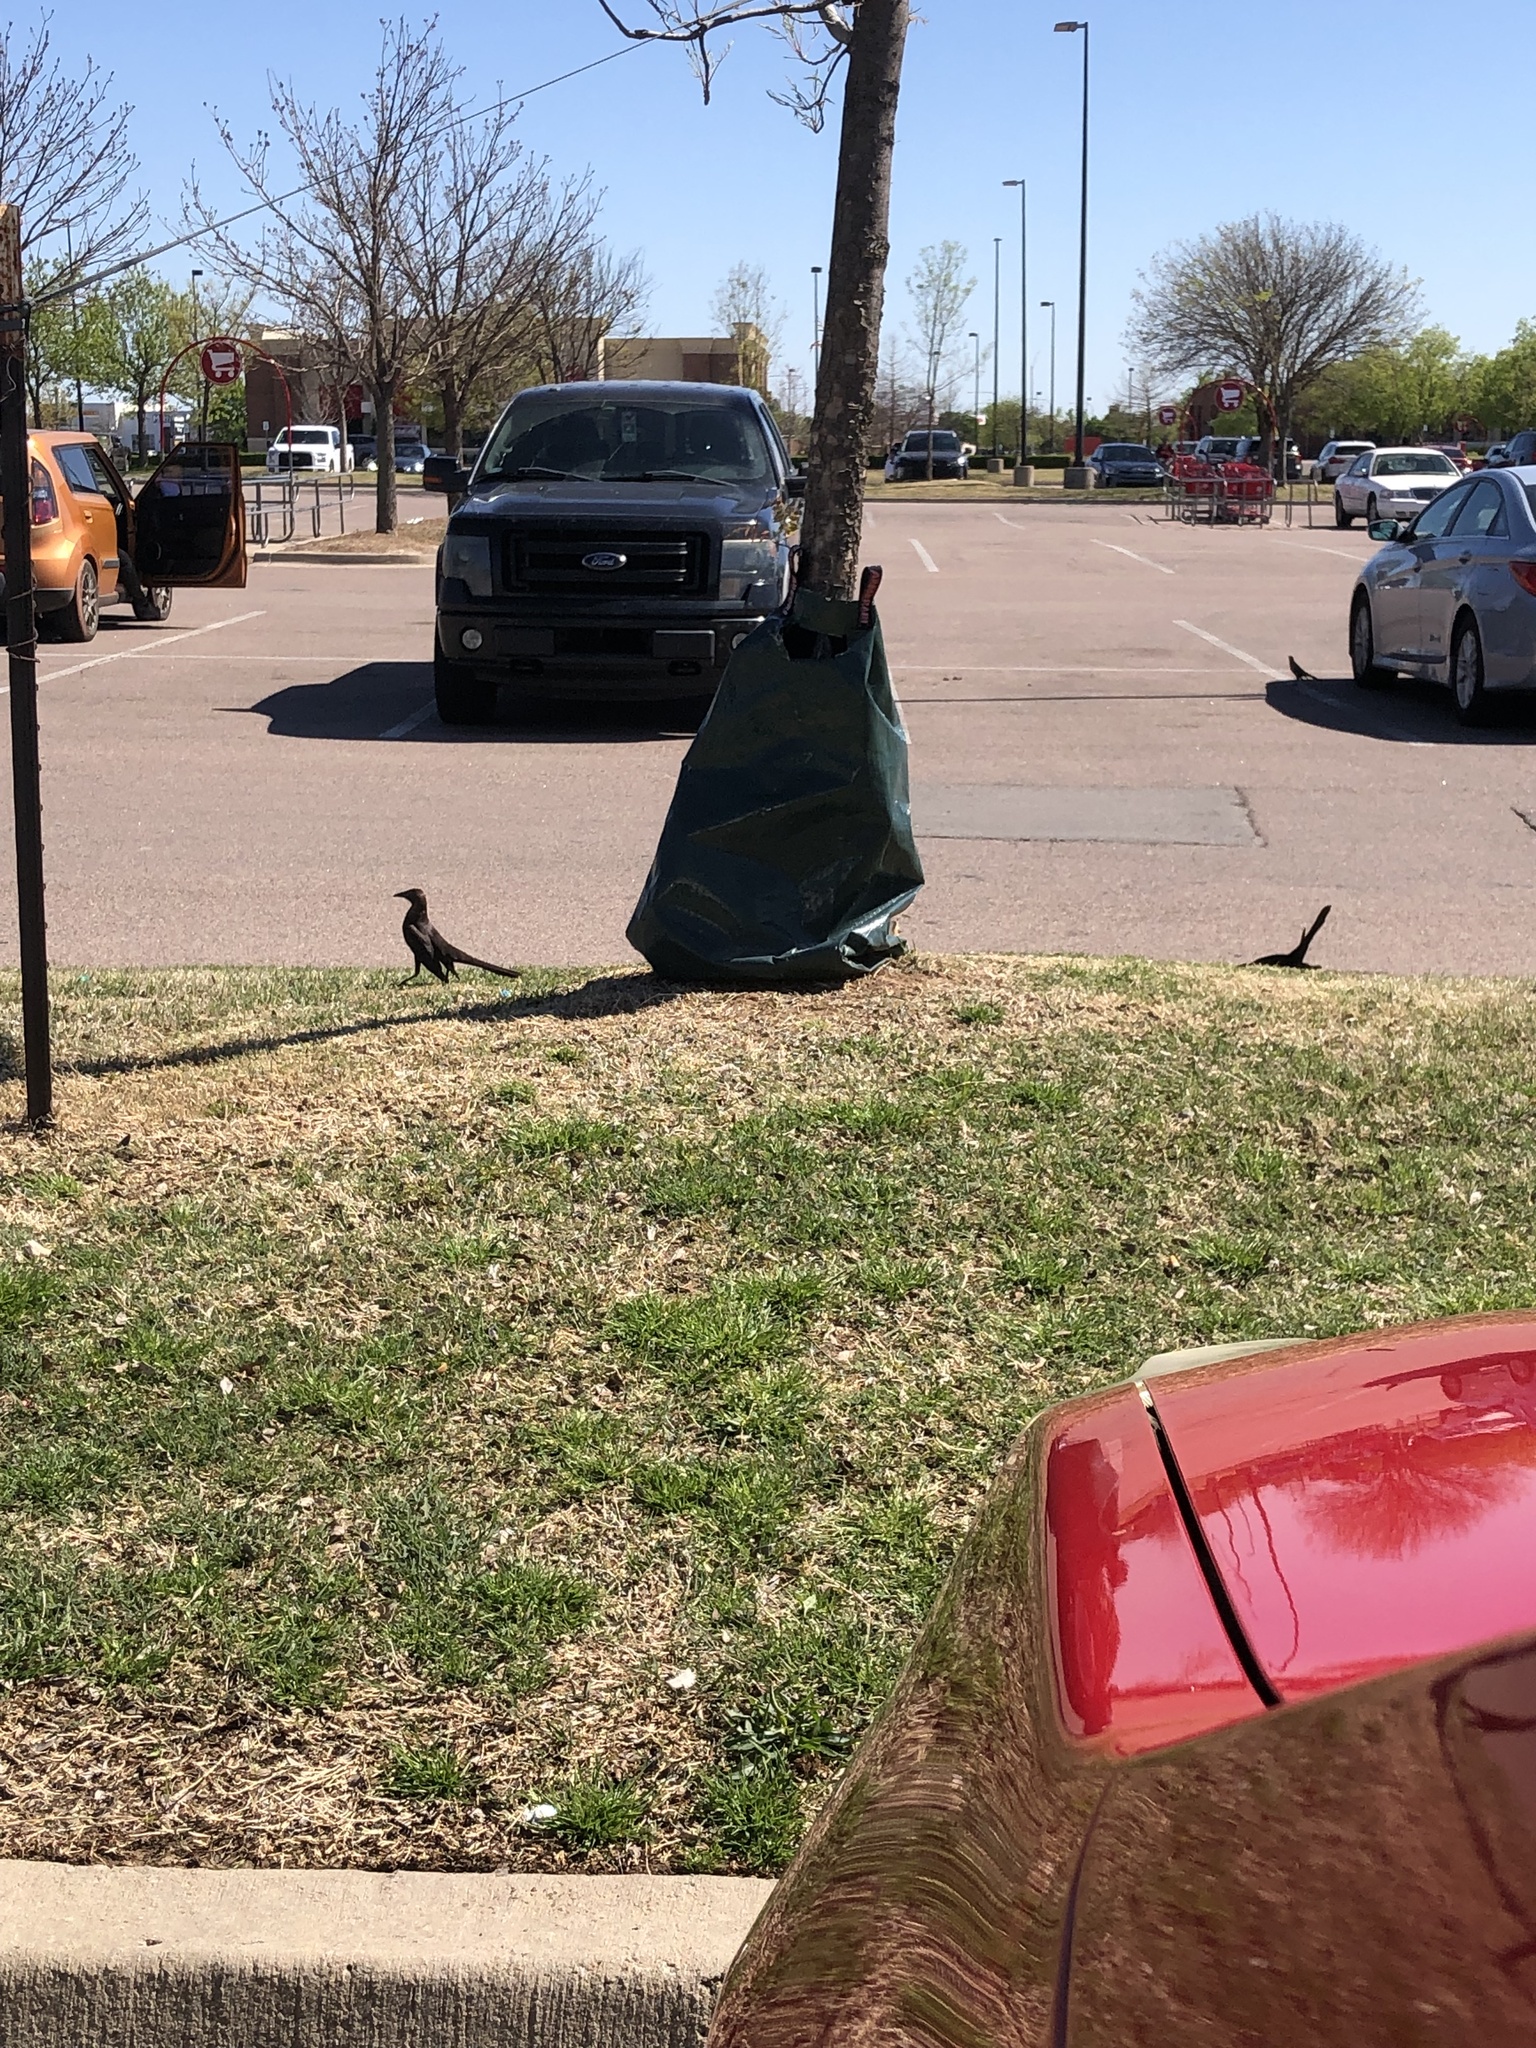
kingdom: Animalia
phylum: Chordata
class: Aves
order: Passeriformes
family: Icteridae
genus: Quiscalus
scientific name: Quiscalus mexicanus
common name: Great-tailed grackle
